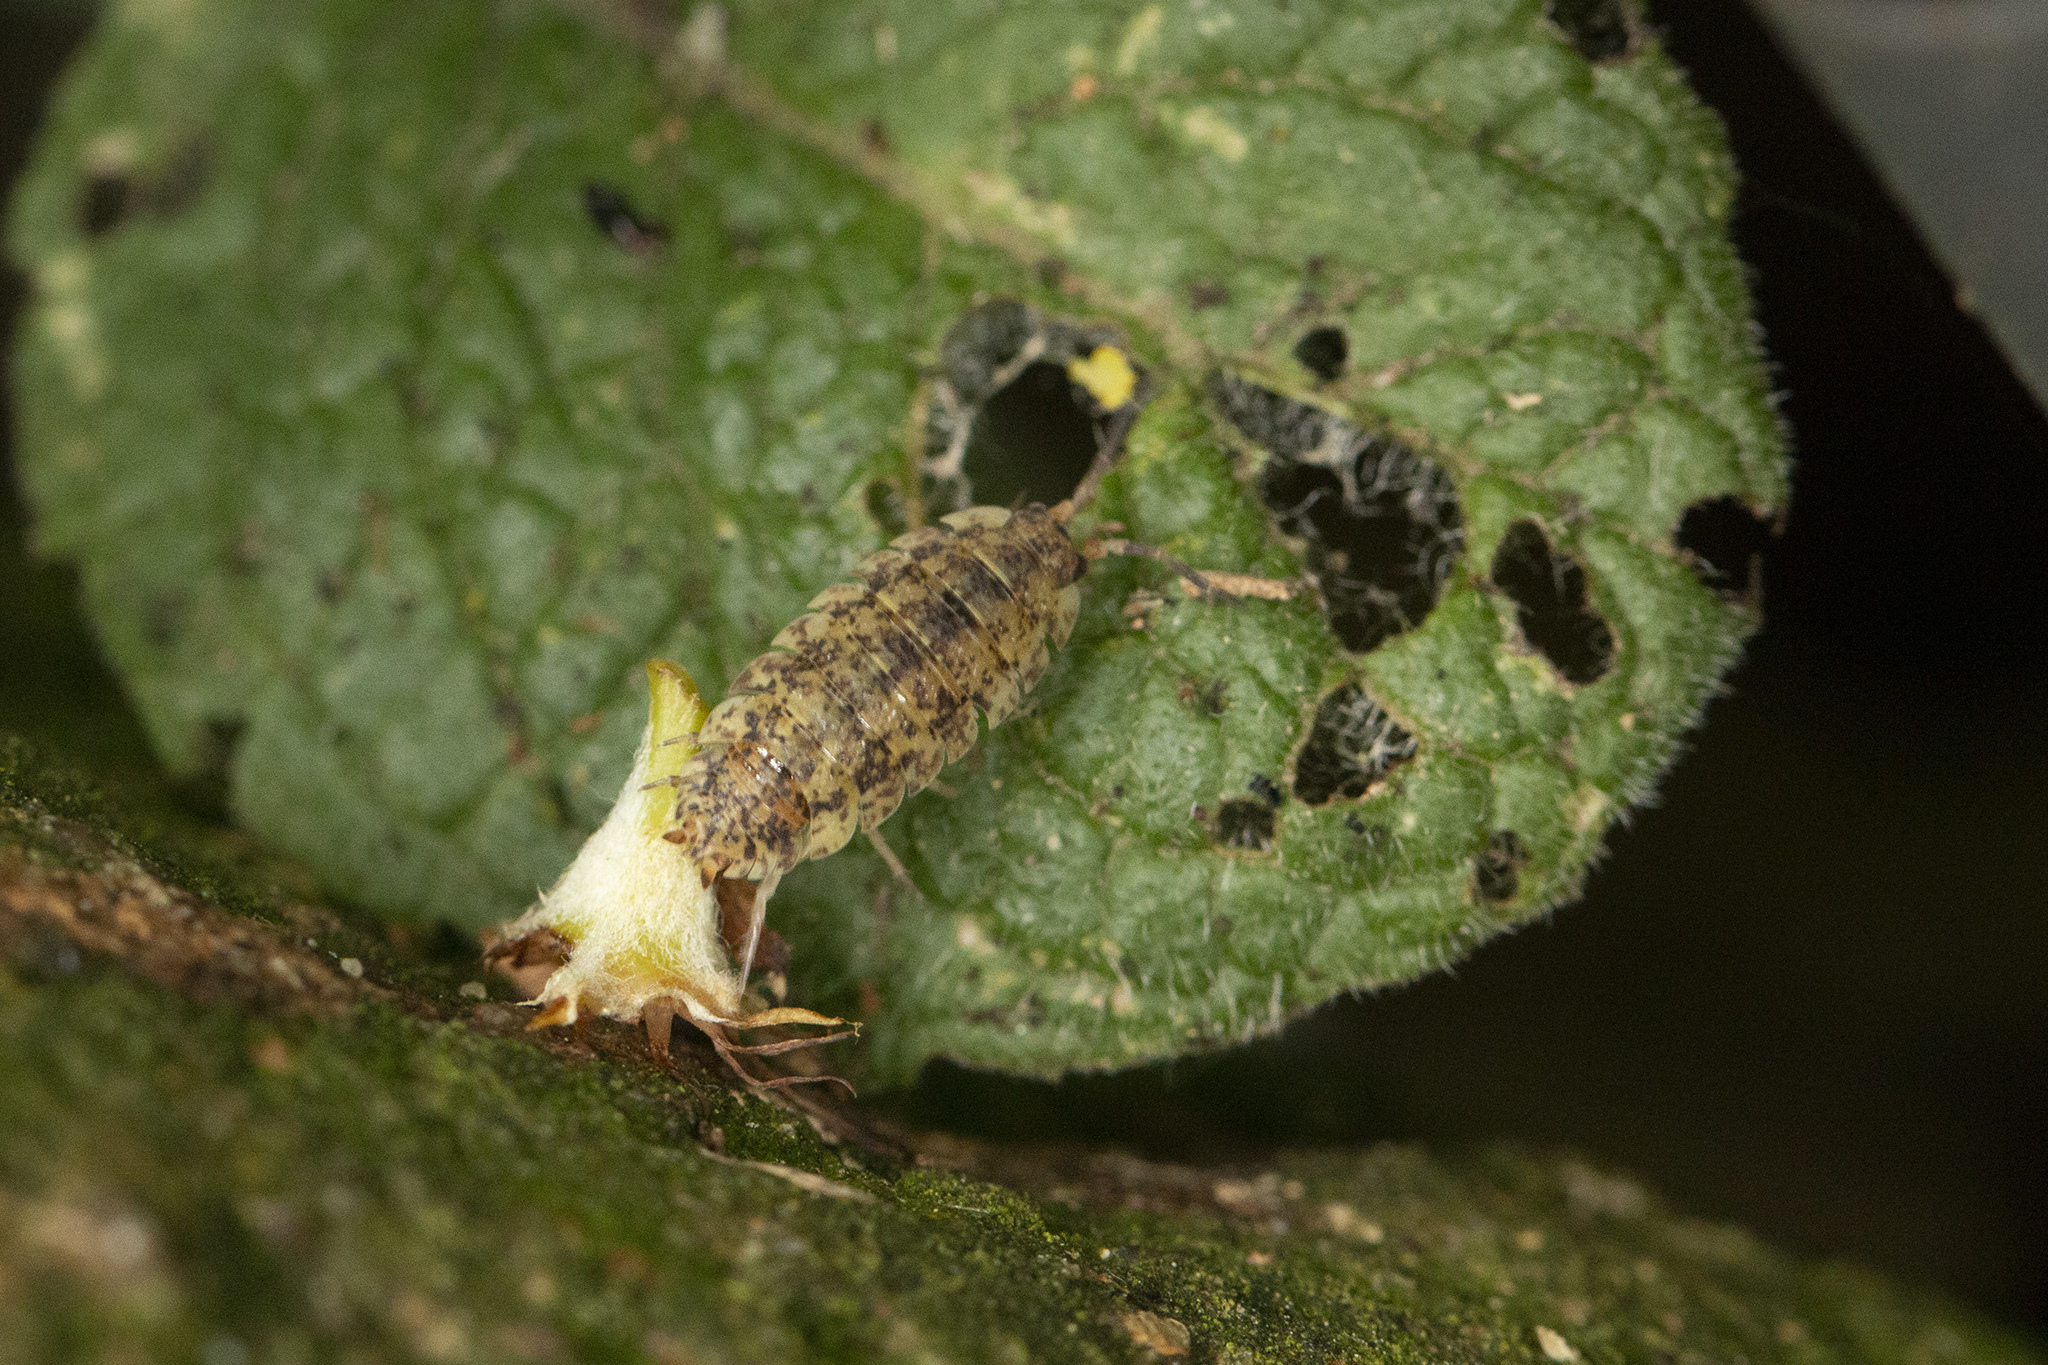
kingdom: Animalia
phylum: Arthropoda
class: Malacostraca
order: Isopoda
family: Porcellionidae
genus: Porcellio
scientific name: Porcellio scaber
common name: Common rough woodlouse
